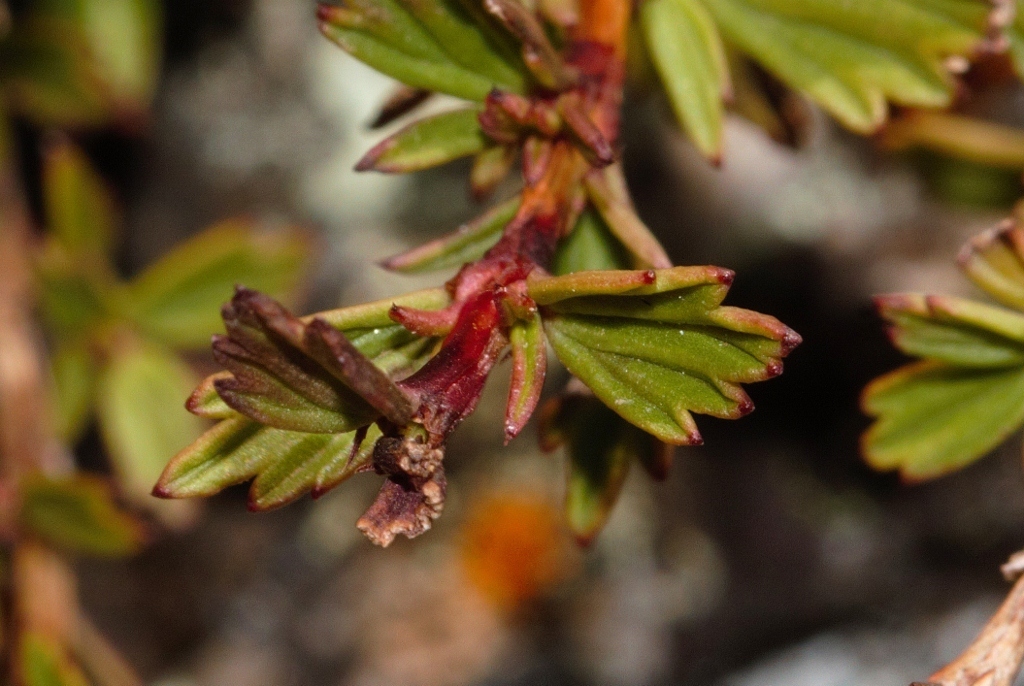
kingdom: Plantae
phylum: Tracheophyta
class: Magnoliopsida
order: Gunnerales
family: Myrothamnaceae
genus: Myrothamnus
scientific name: Myrothamnus flabellifolius
